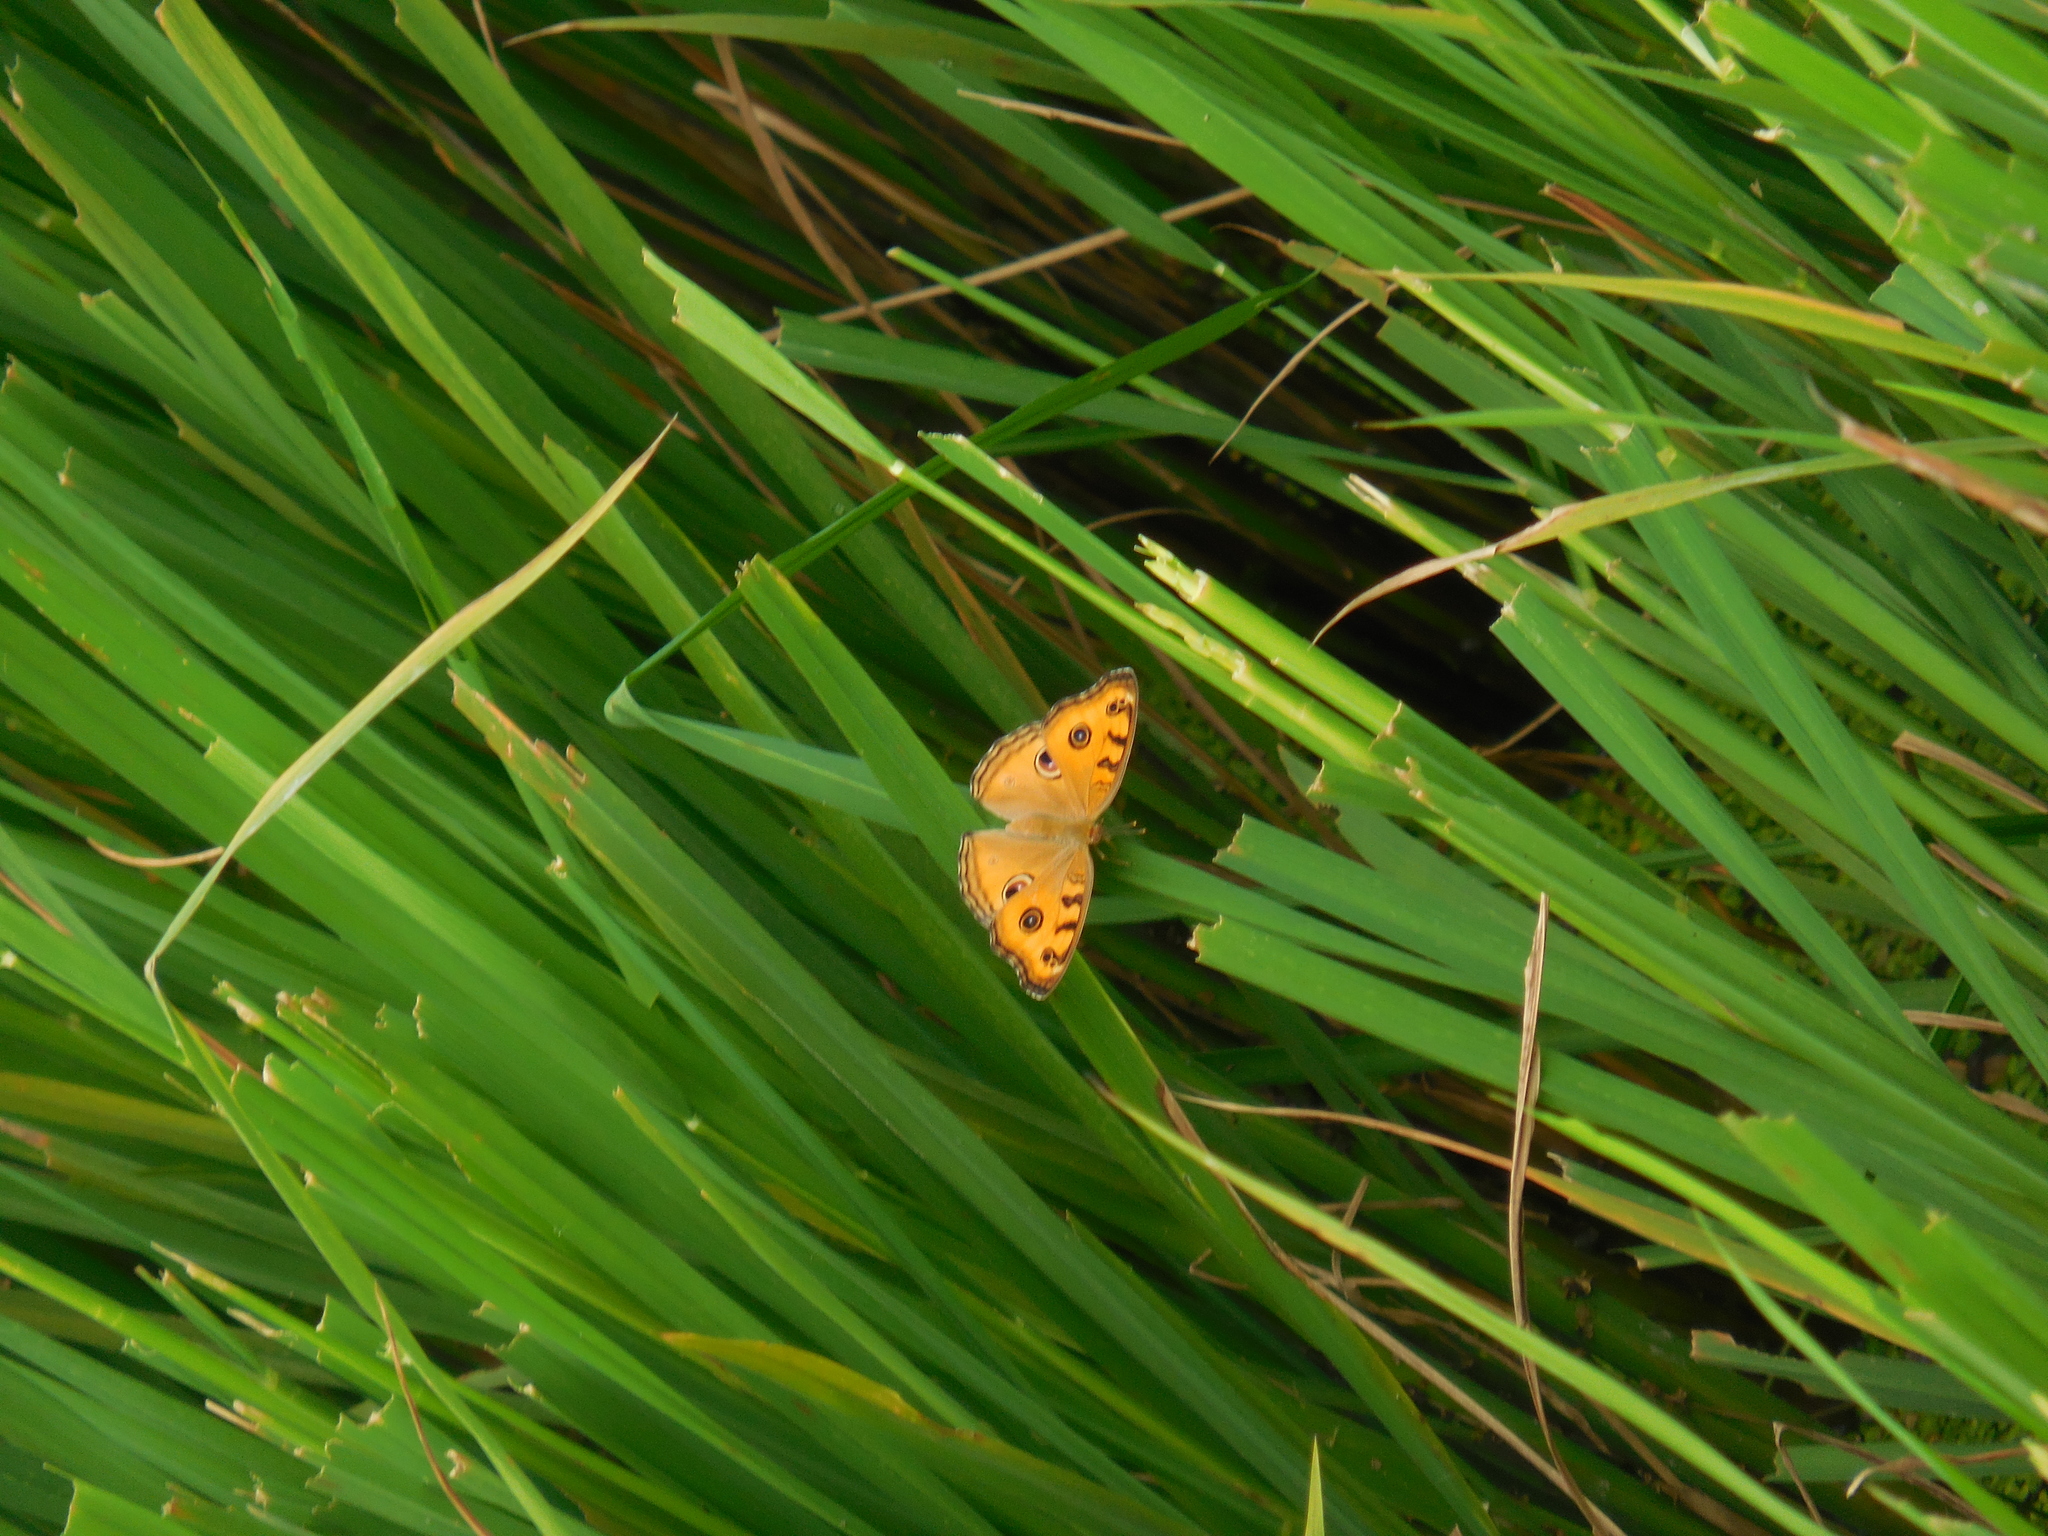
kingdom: Animalia
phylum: Arthropoda
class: Insecta
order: Lepidoptera
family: Nymphalidae
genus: Junonia
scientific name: Junonia almana
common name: Peacock pansy
